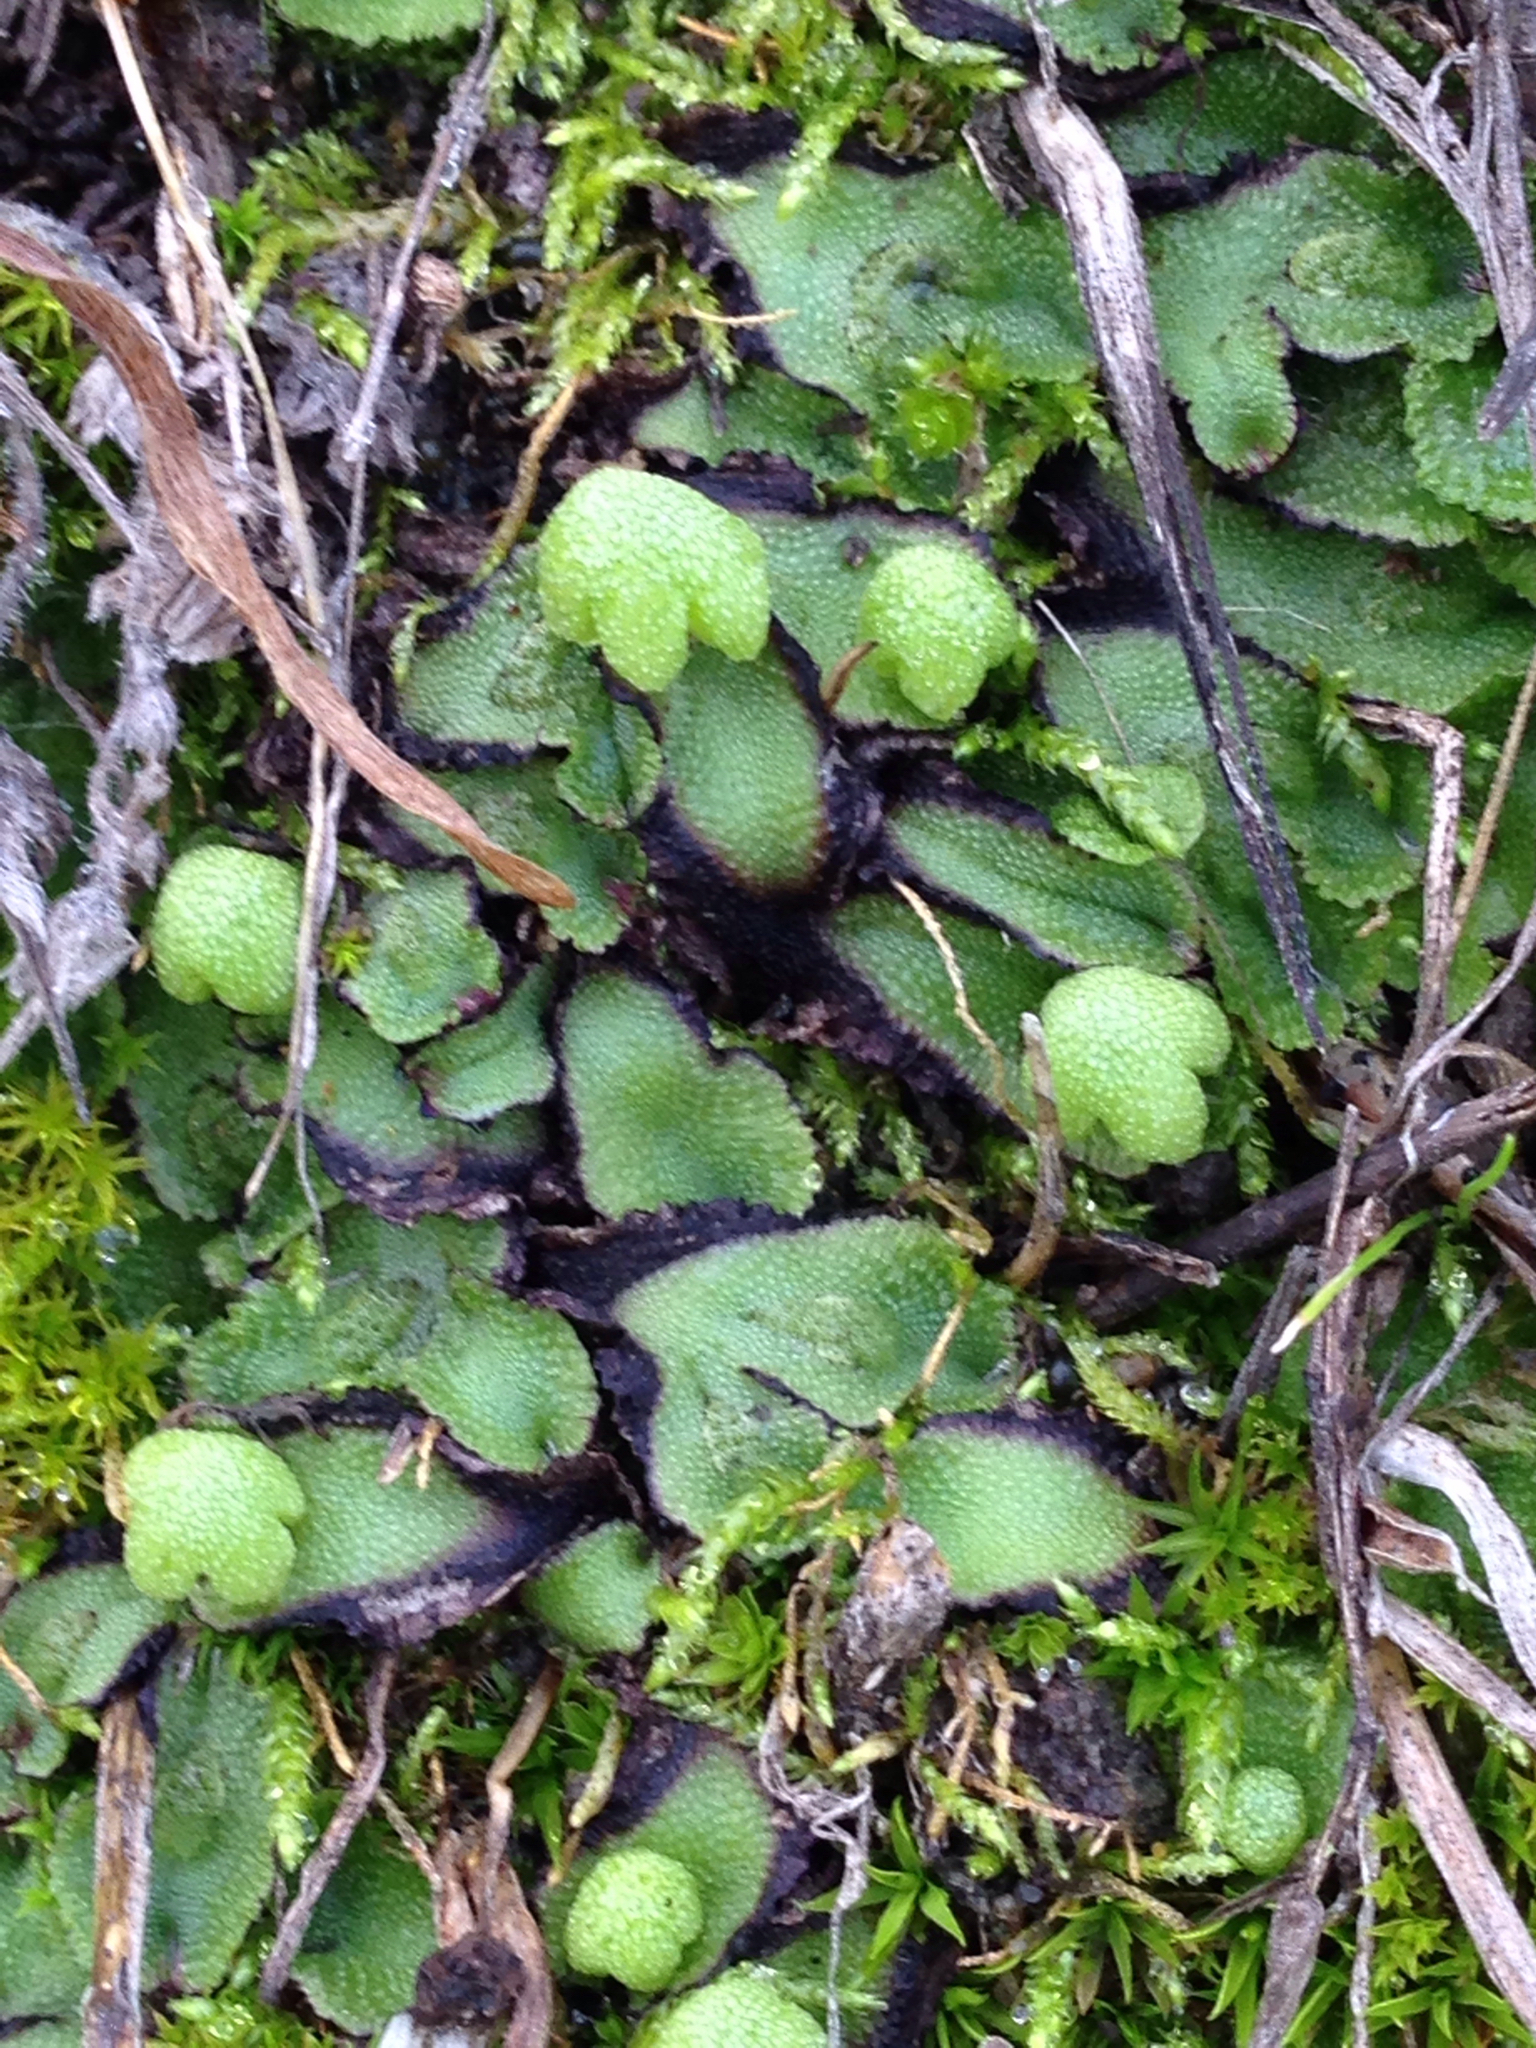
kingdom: Plantae
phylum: Marchantiophyta
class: Marchantiopsida
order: Marchantiales
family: Aytoniaceae
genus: Asterella
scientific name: Asterella californica
